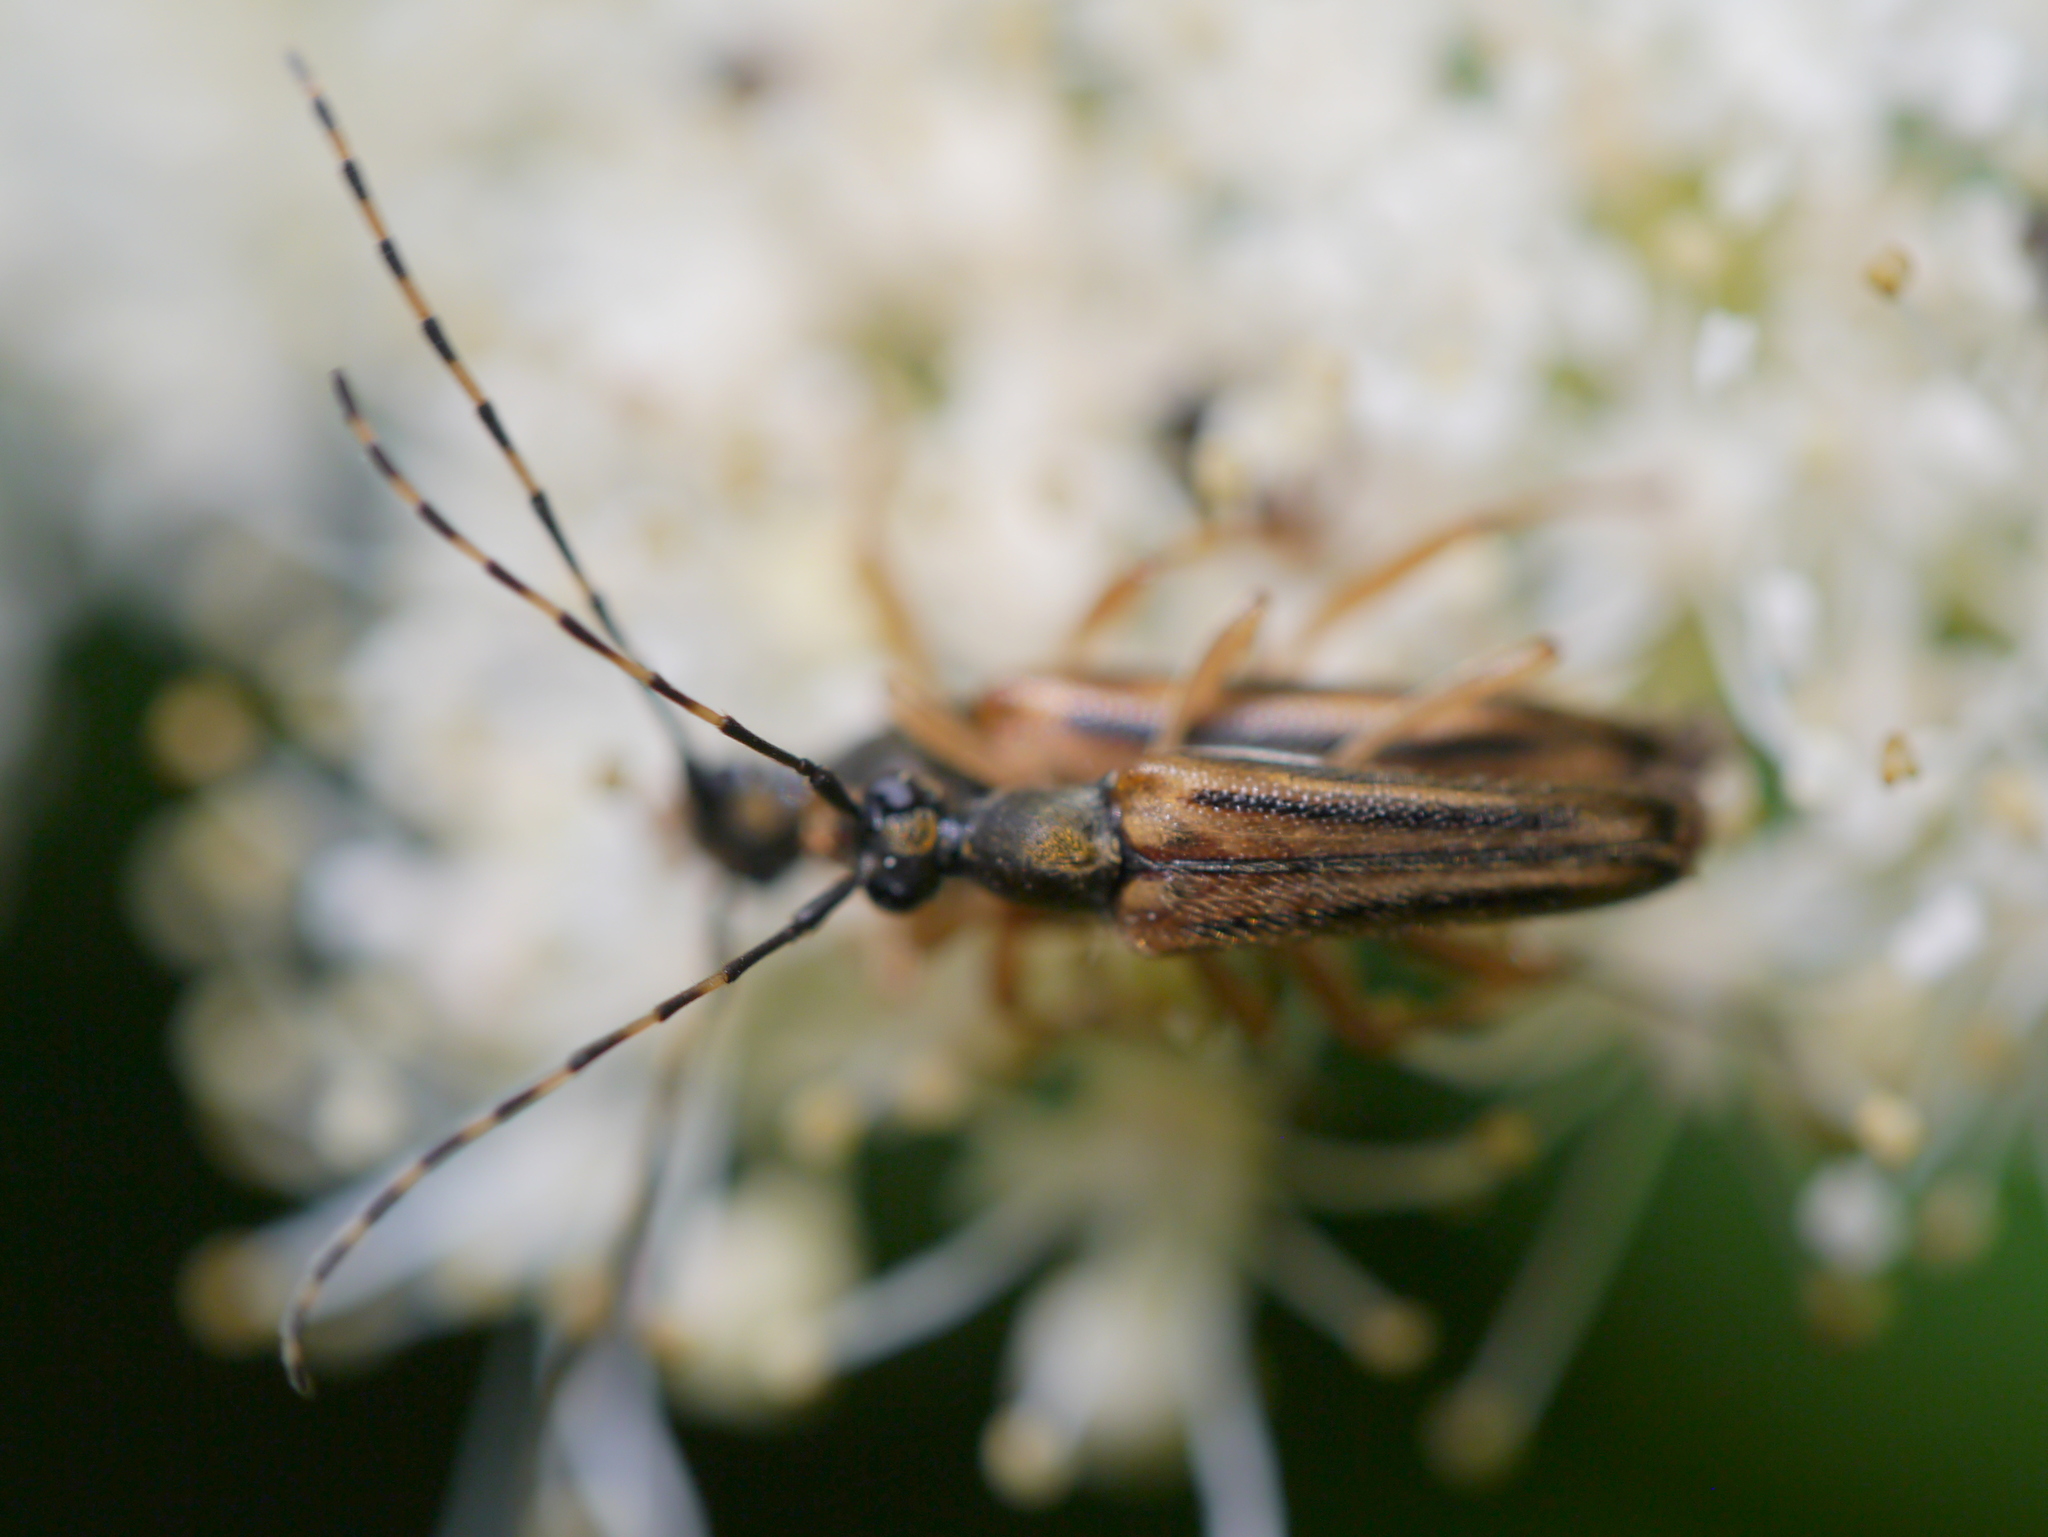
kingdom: Animalia
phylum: Arthropoda
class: Insecta
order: Coleoptera
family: Cerambycidae
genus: Analeptura
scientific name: Analeptura lineola
